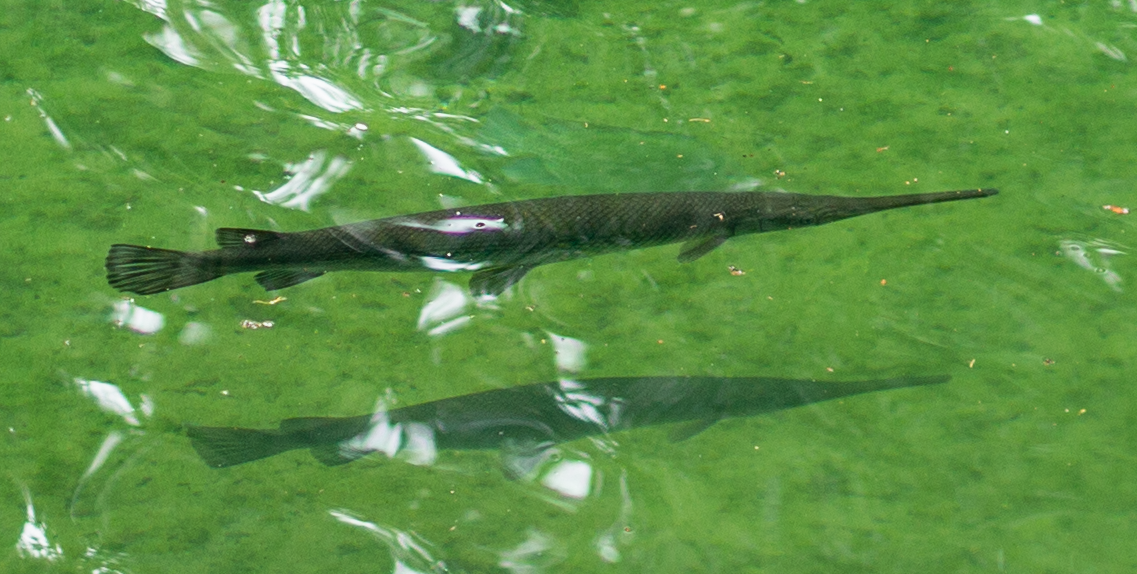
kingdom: Animalia
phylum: Chordata
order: Lepisosteiformes
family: Lepisosteidae
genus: Lepisosteus
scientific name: Lepisosteus osseus
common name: Longnose gar
